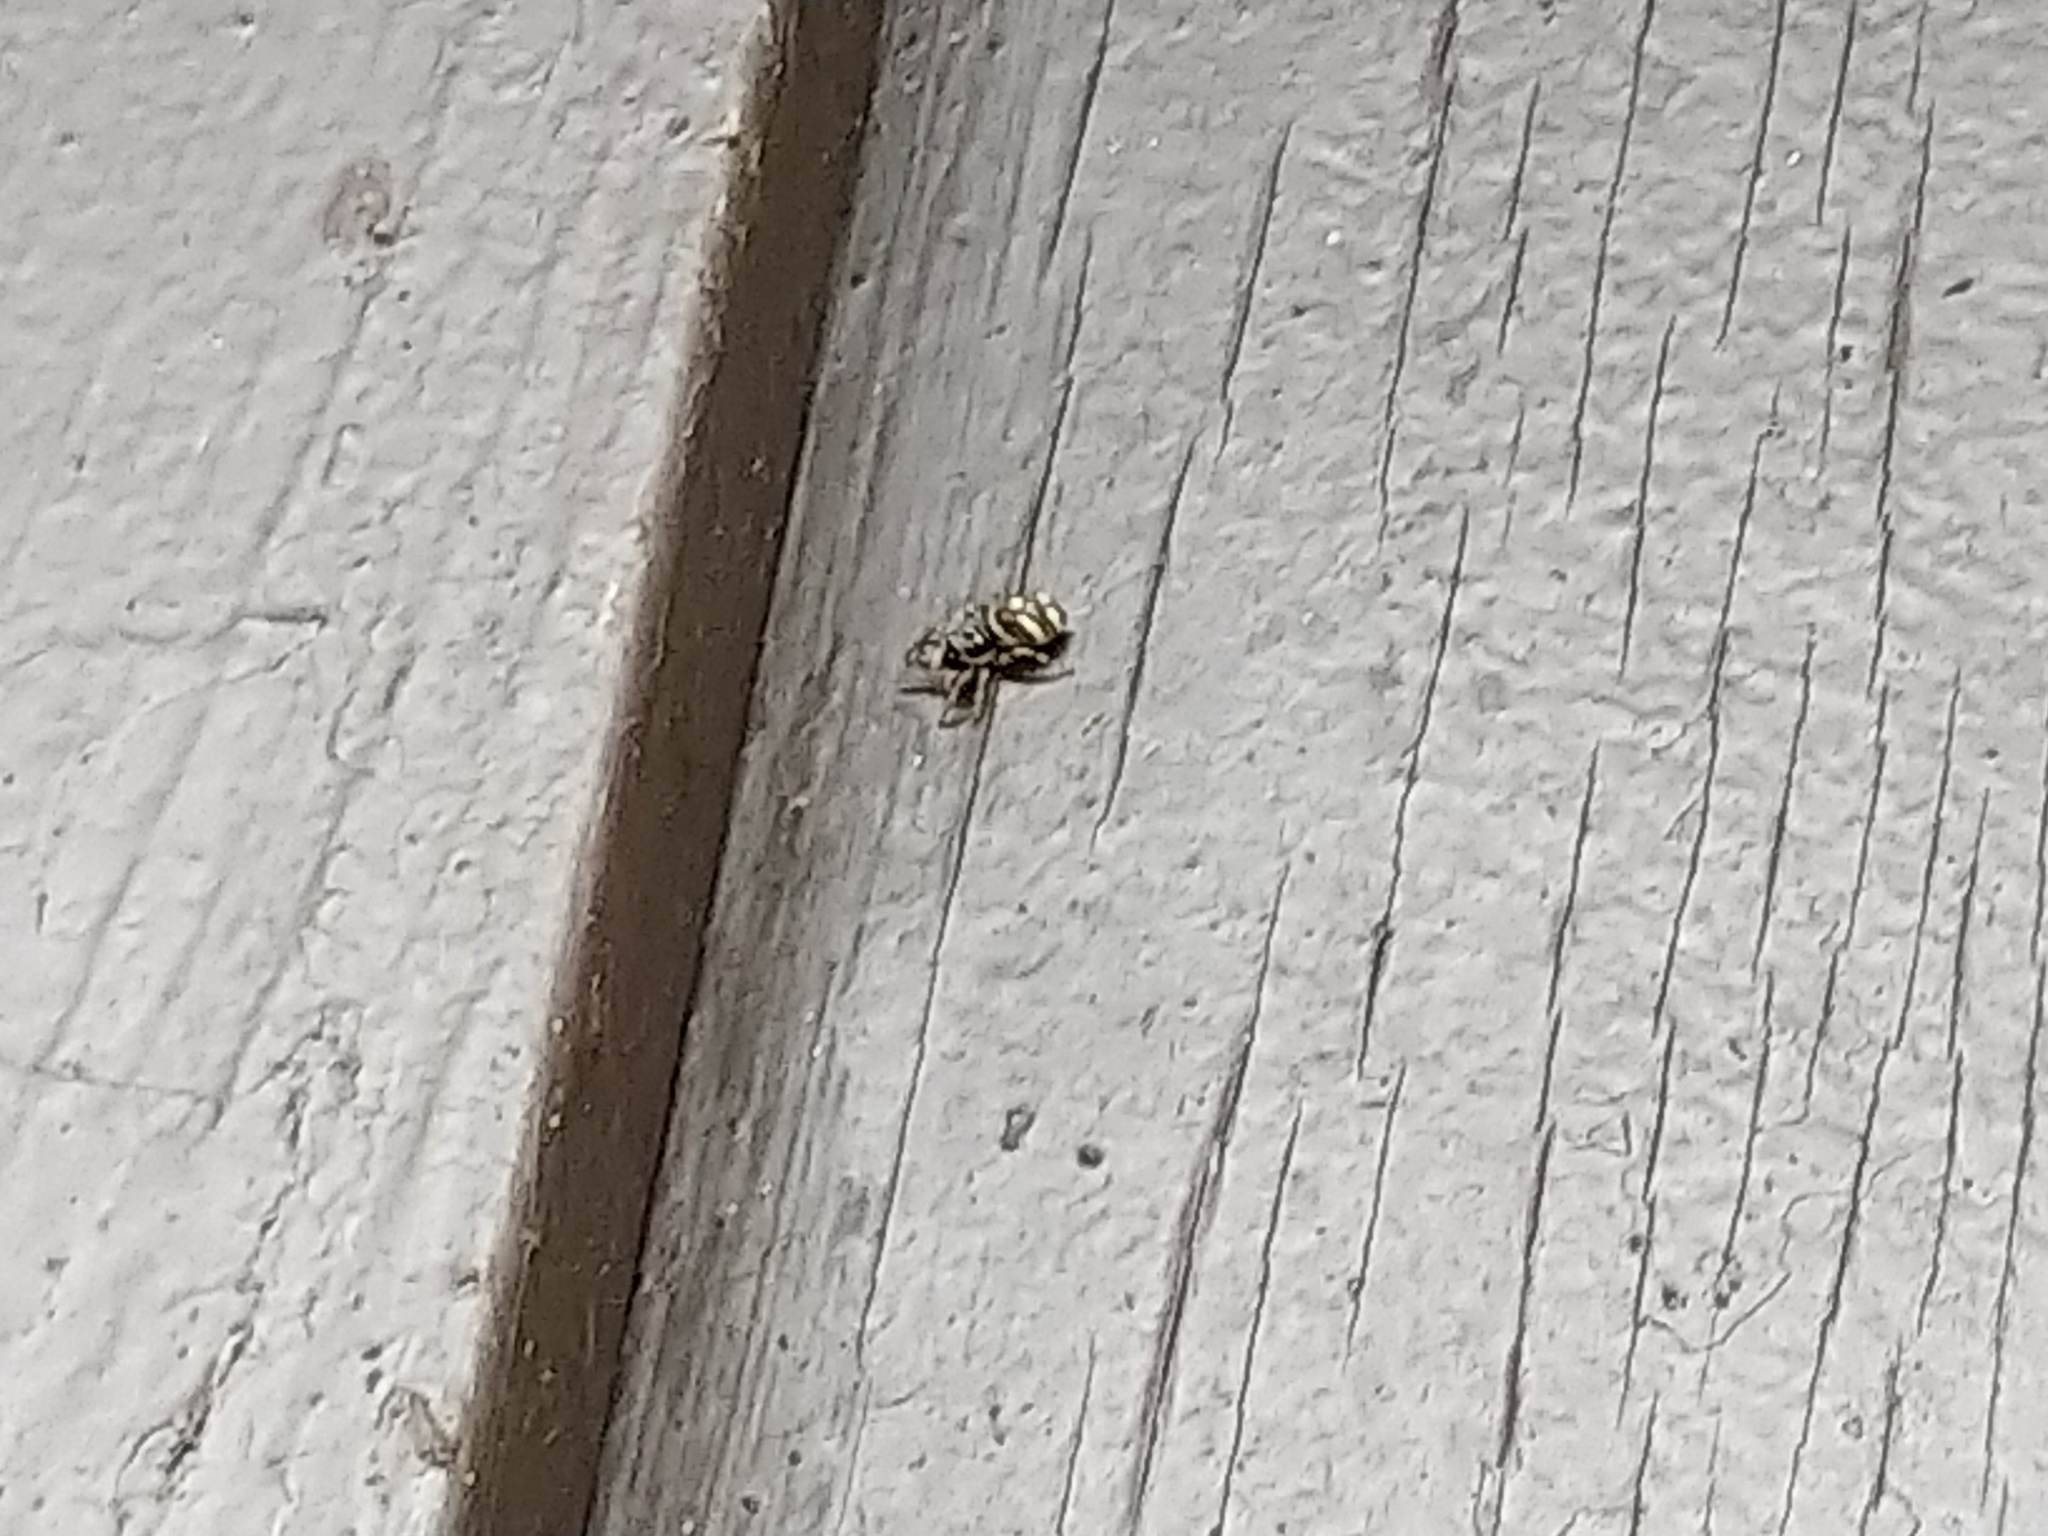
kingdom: Animalia
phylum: Arthropoda
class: Arachnida
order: Araneae
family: Salticidae
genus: Salticus
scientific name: Salticus scenicus
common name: Zebra jumper
